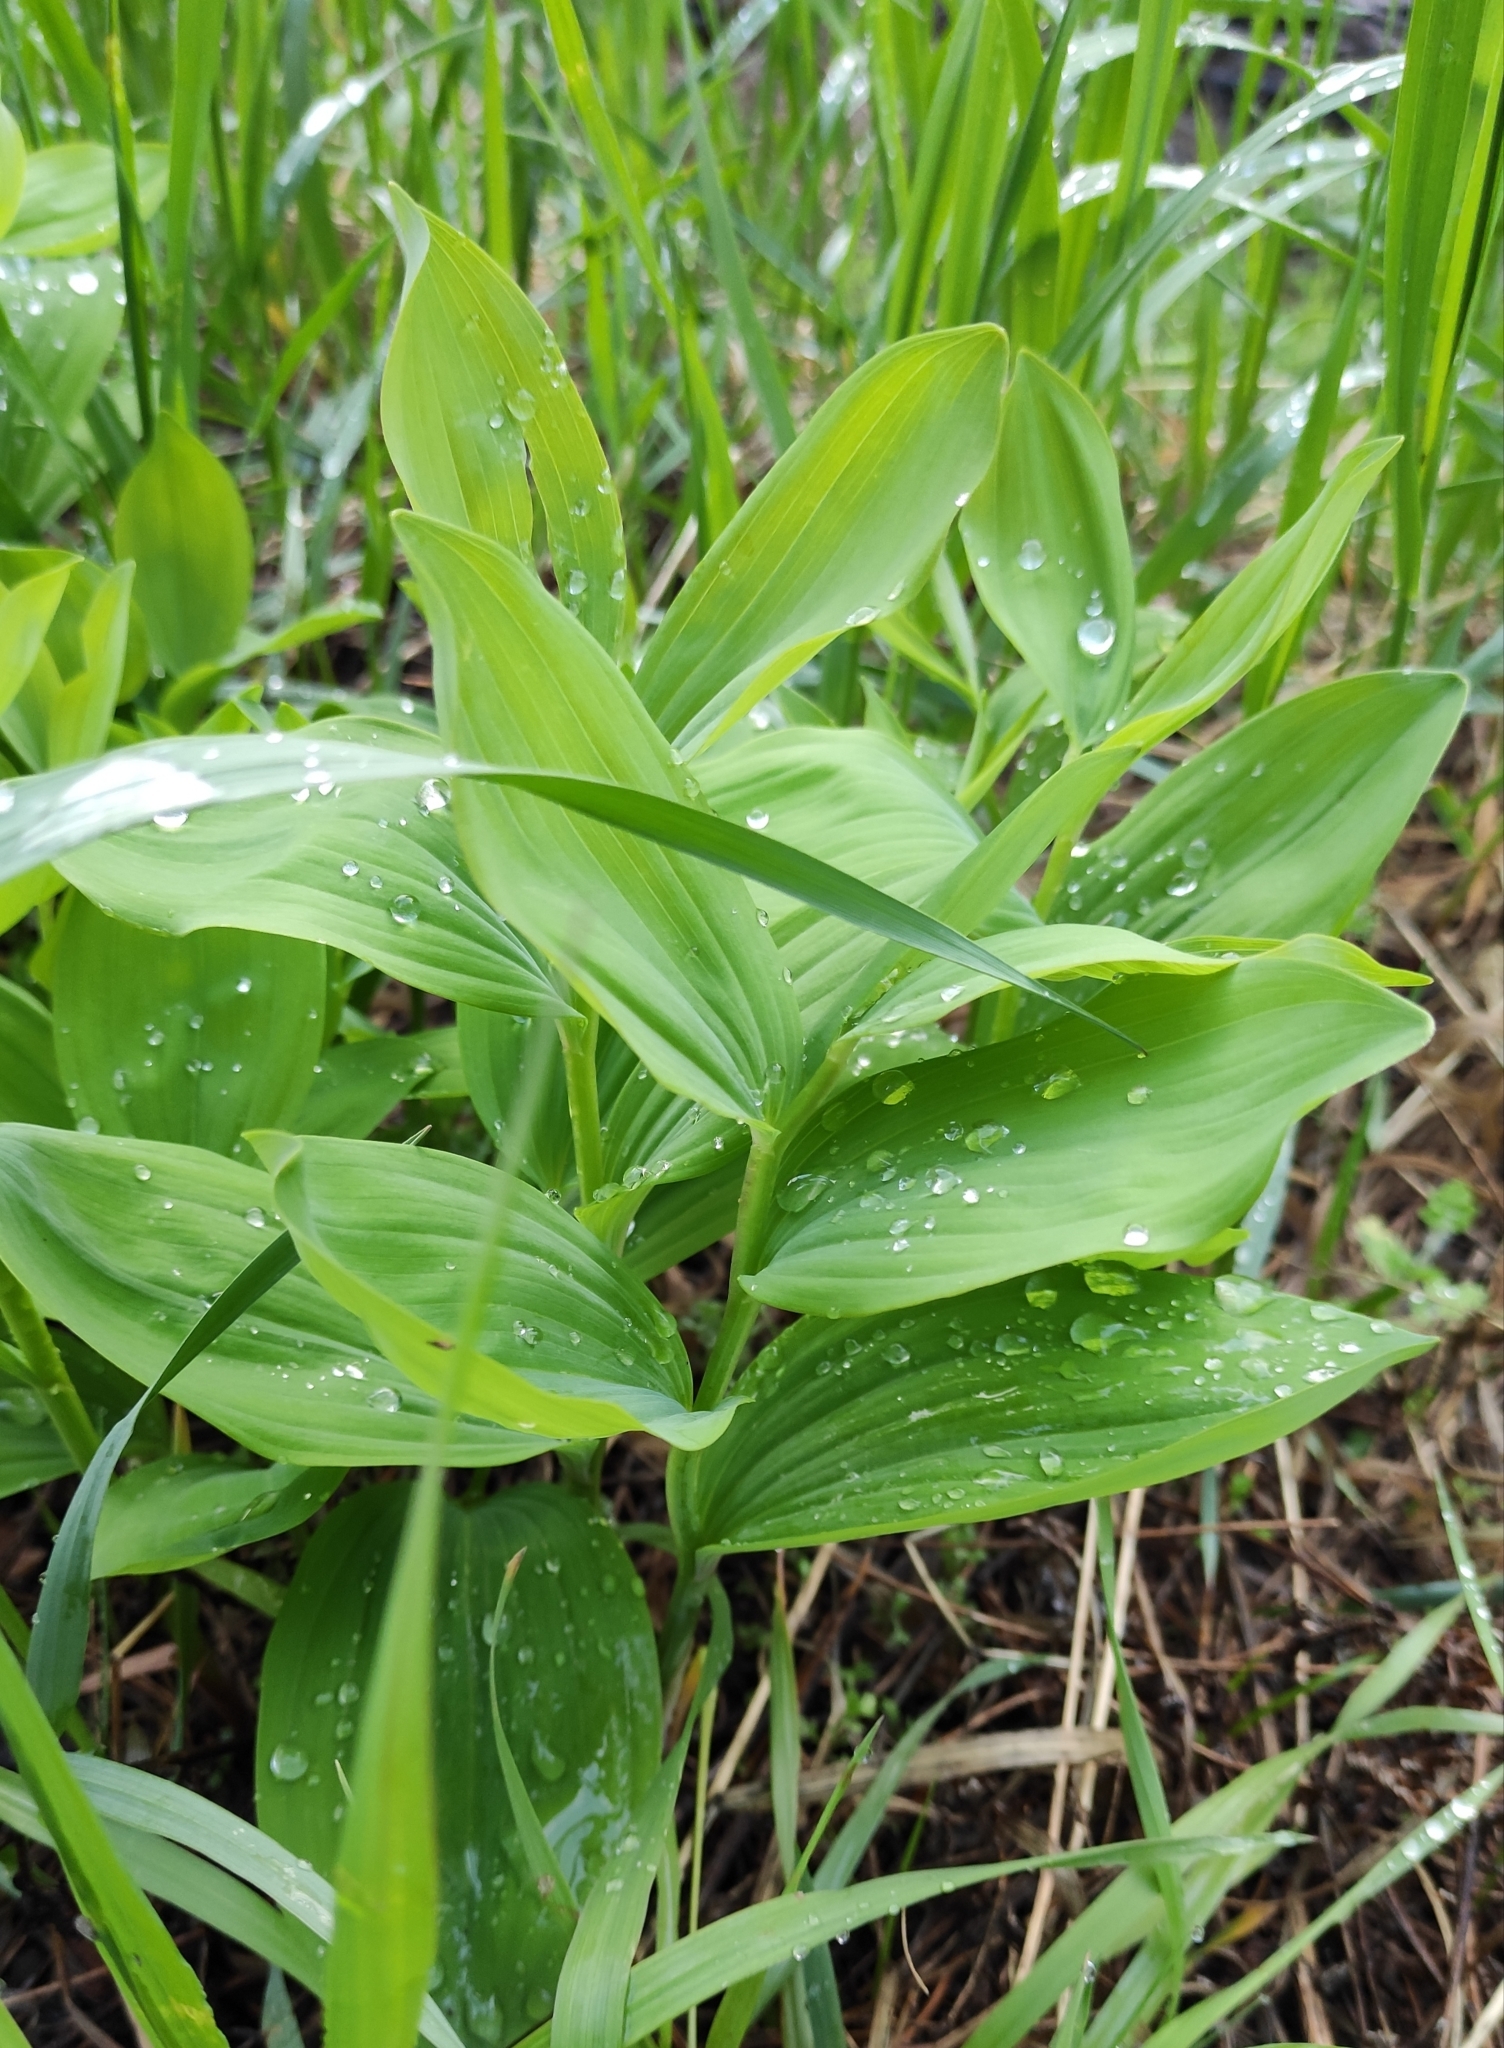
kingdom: Plantae
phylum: Tracheophyta
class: Liliopsida
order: Asparagales
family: Asparagaceae
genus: Polygonatum
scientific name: Polygonatum odoratum
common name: Angular solomon's-seal
